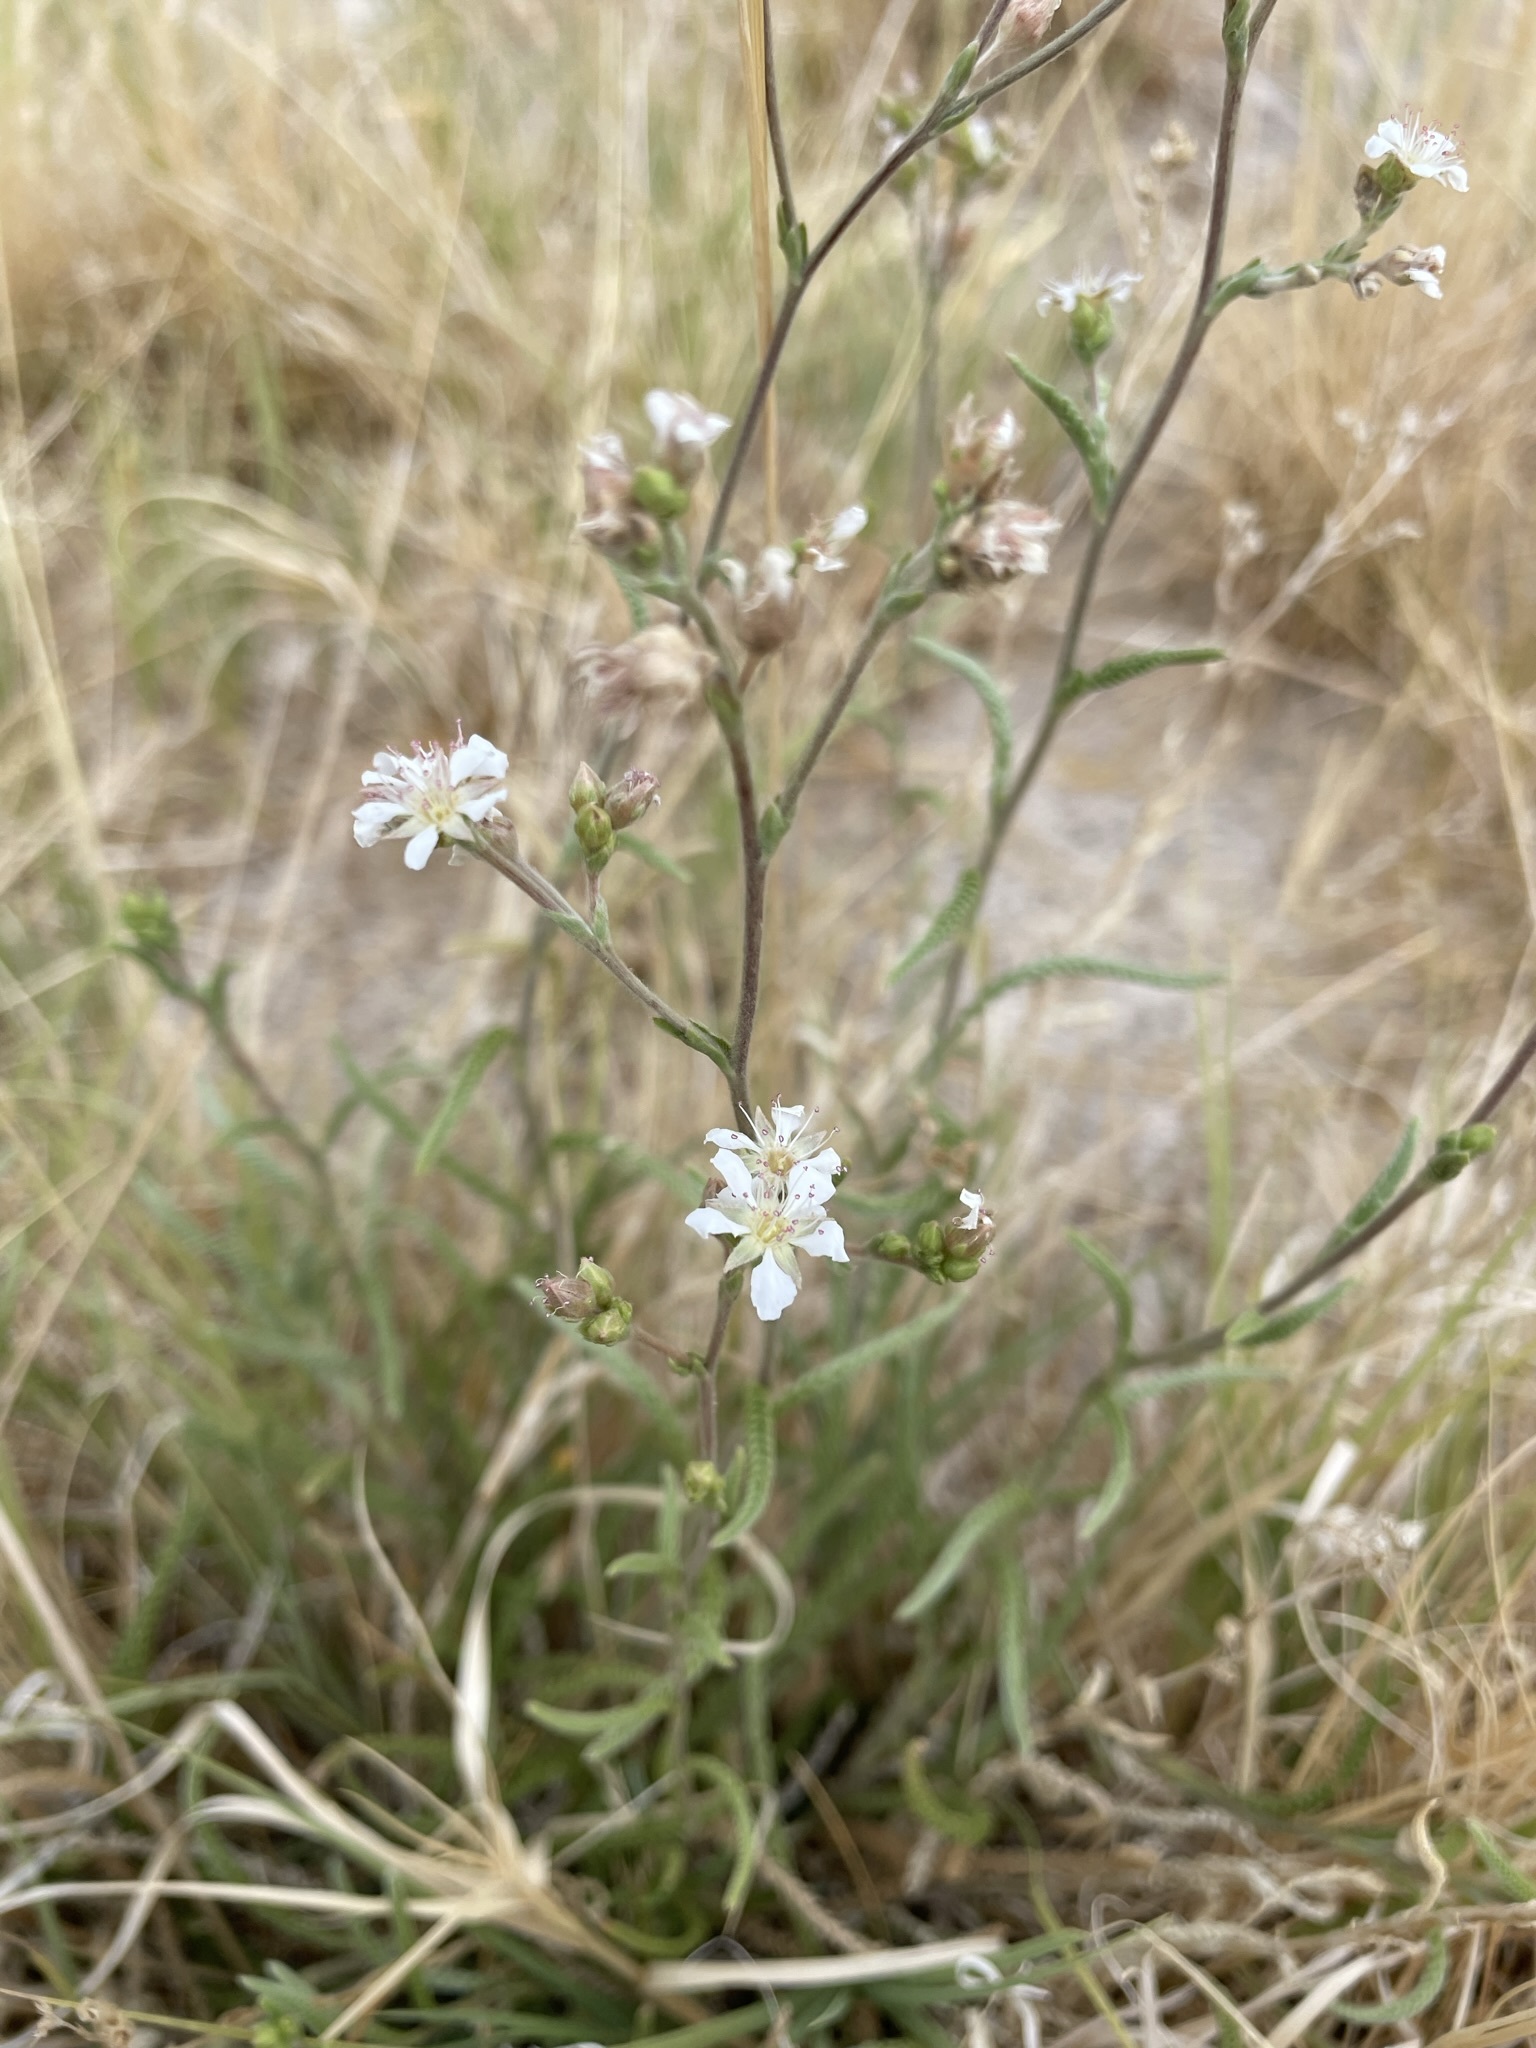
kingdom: Plantae
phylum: Tracheophyta
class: Magnoliopsida
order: Rosales
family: Rosaceae
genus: Potentilla
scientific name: Potentilla kingii
